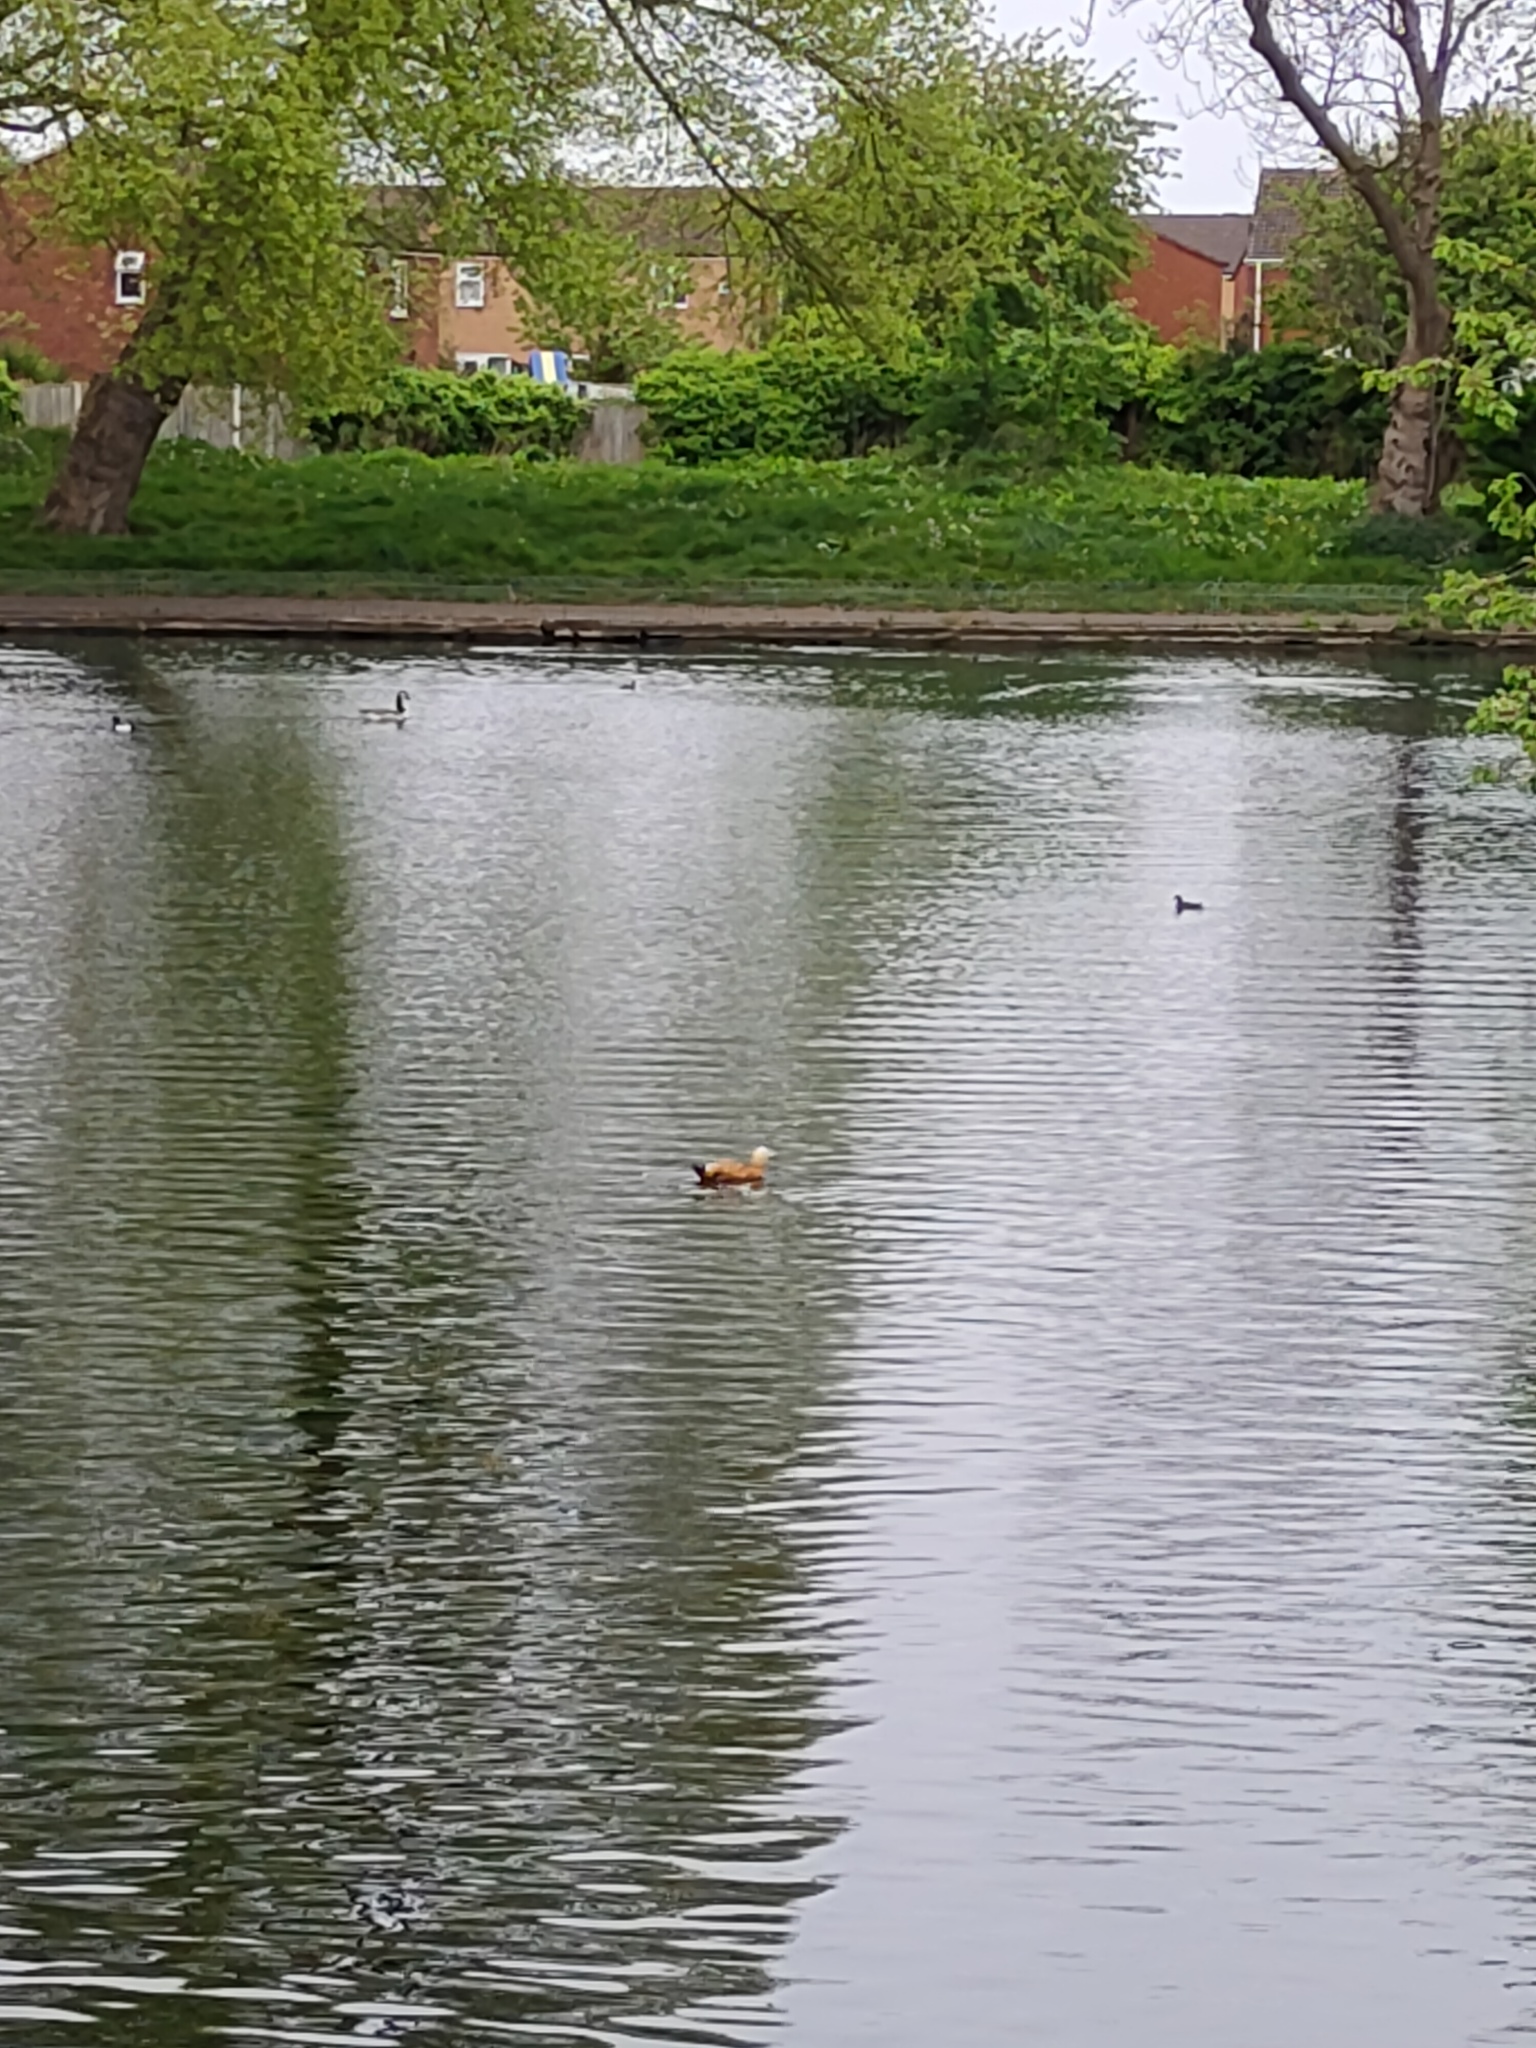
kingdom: Animalia
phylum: Chordata
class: Aves
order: Anseriformes
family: Anatidae
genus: Tadorna
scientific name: Tadorna ferruginea
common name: Ruddy shelduck
